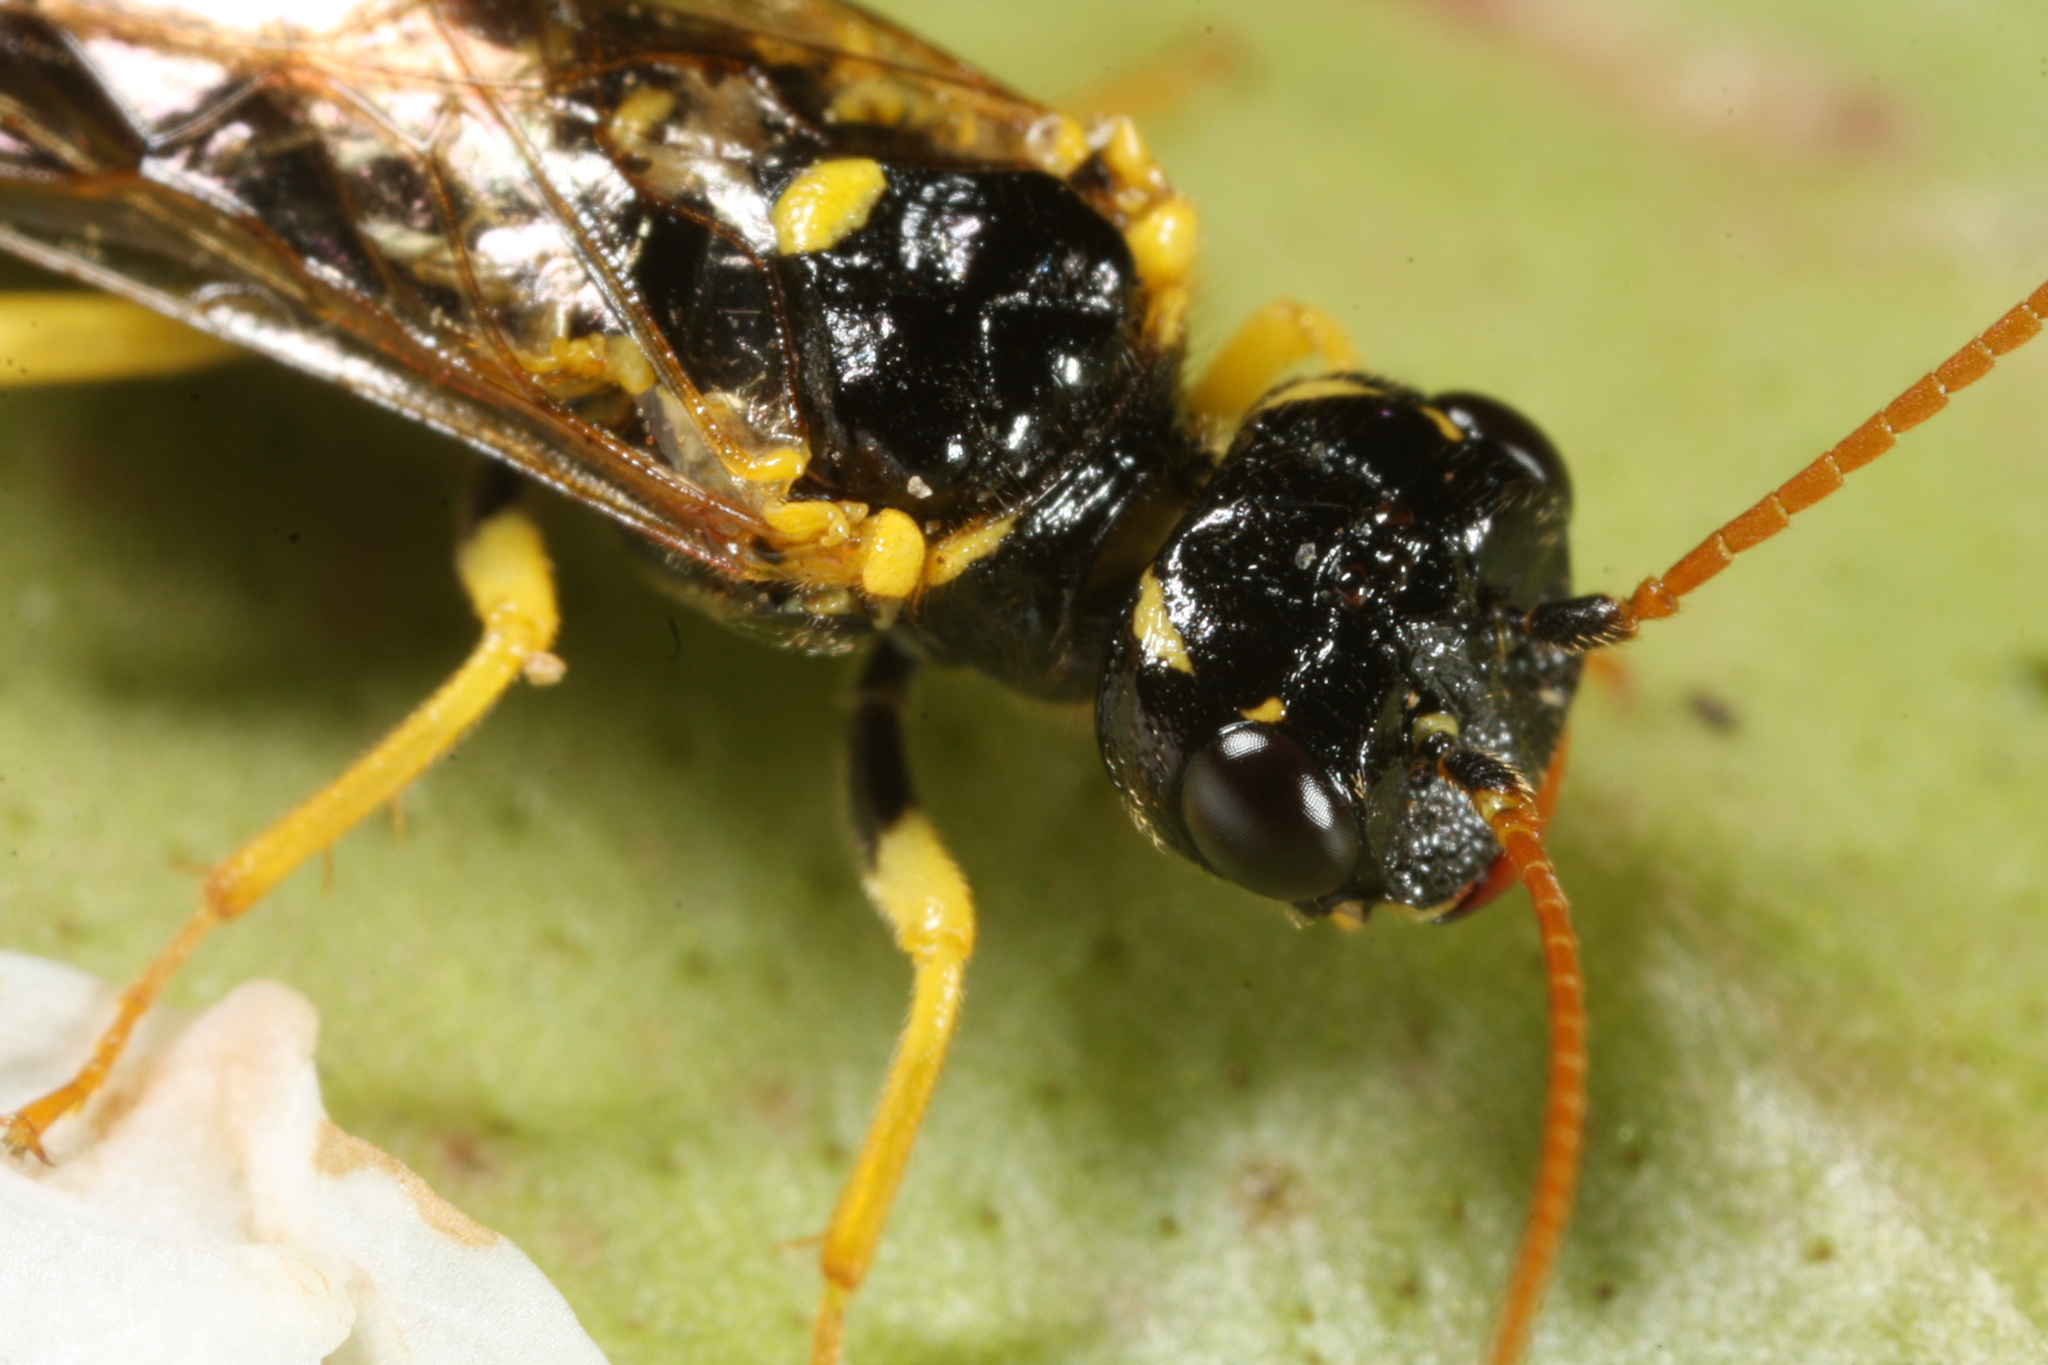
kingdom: Animalia
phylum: Arthropoda
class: Insecta
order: Hymenoptera
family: Pamphiliidae
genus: Pamphilius
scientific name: Pamphilius sylvaticus
